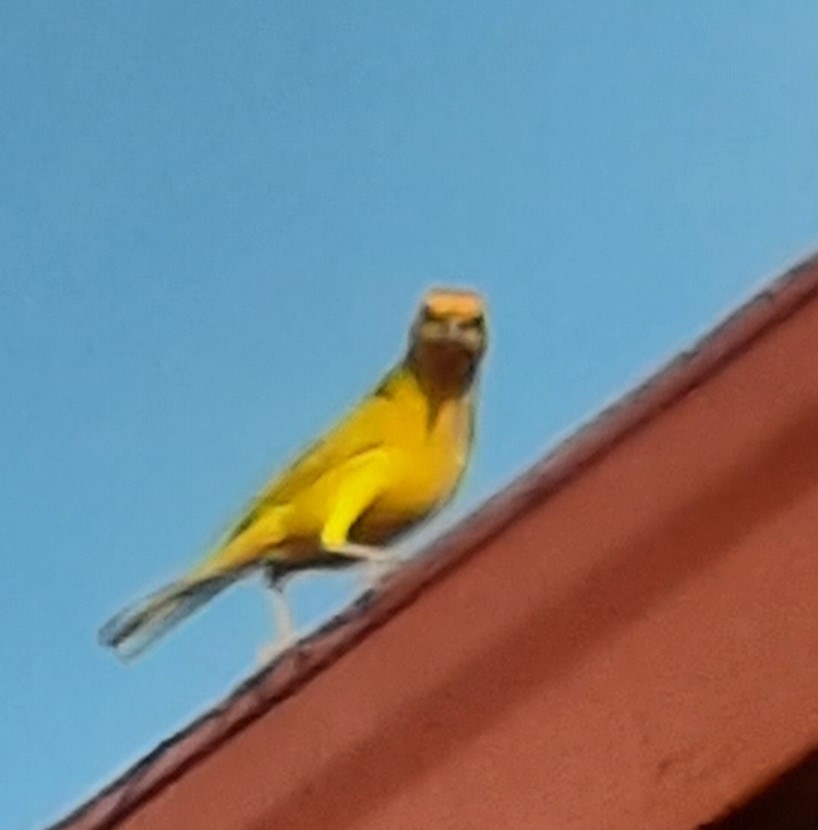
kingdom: Animalia
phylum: Chordata
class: Aves
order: Passeriformes
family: Thraupidae
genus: Sicalis
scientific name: Sicalis flaveola
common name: Saffron finch
